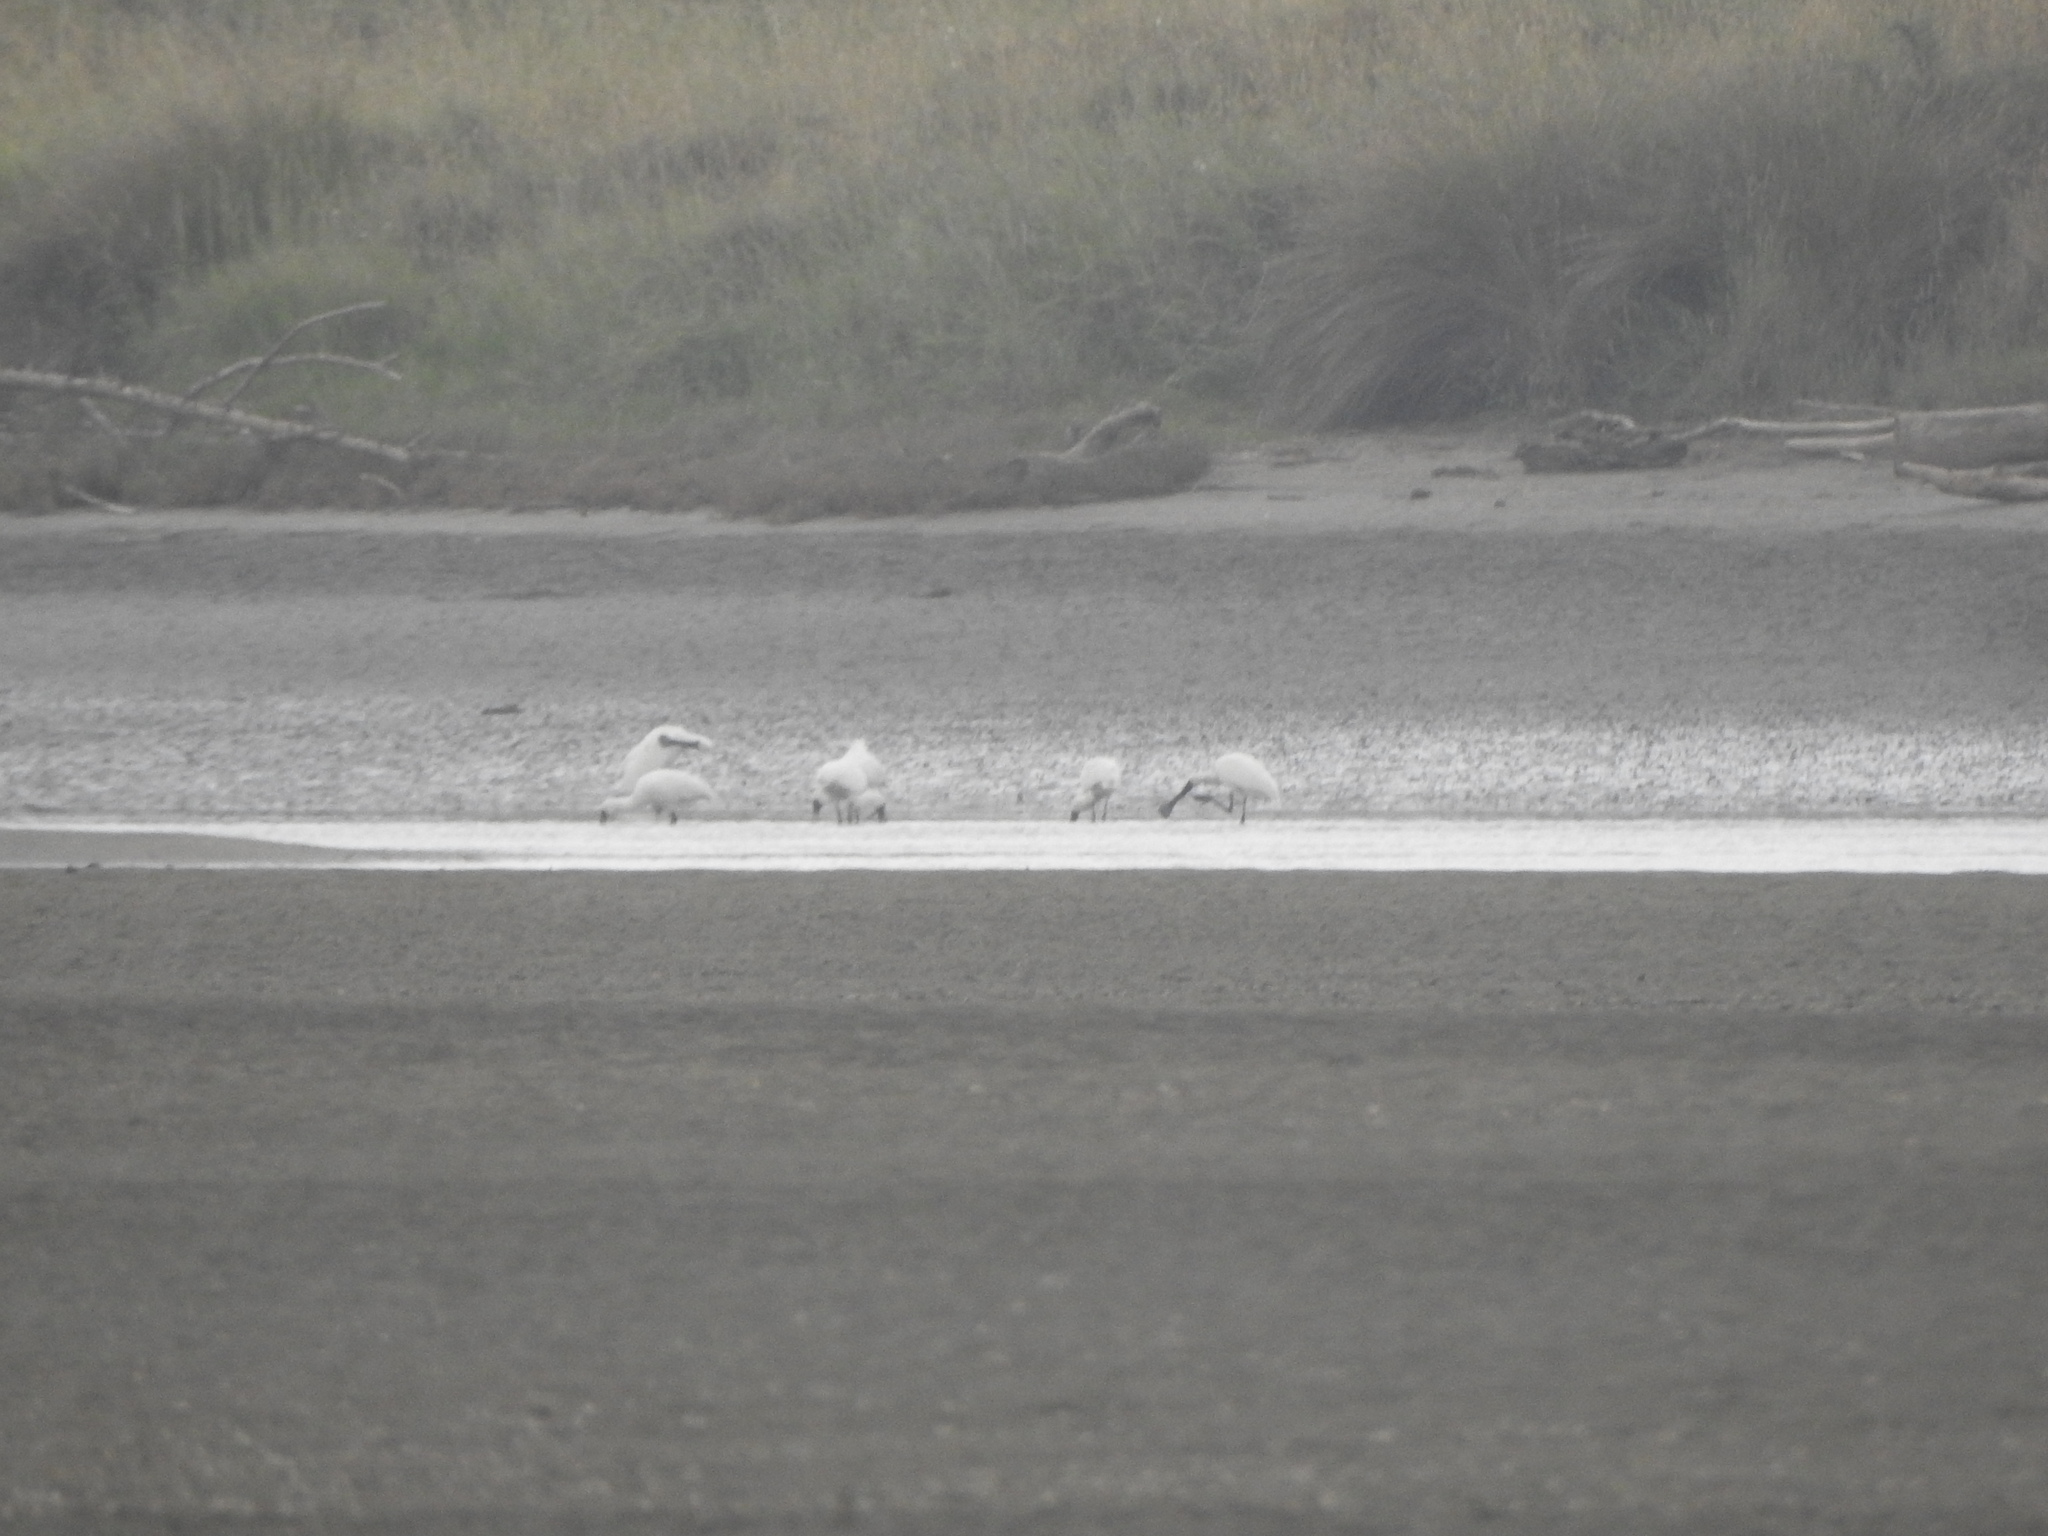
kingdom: Animalia
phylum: Chordata
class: Aves
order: Pelecaniformes
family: Threskiornithidae
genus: Platalea
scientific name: Platalea regia
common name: Royal spoonbill
